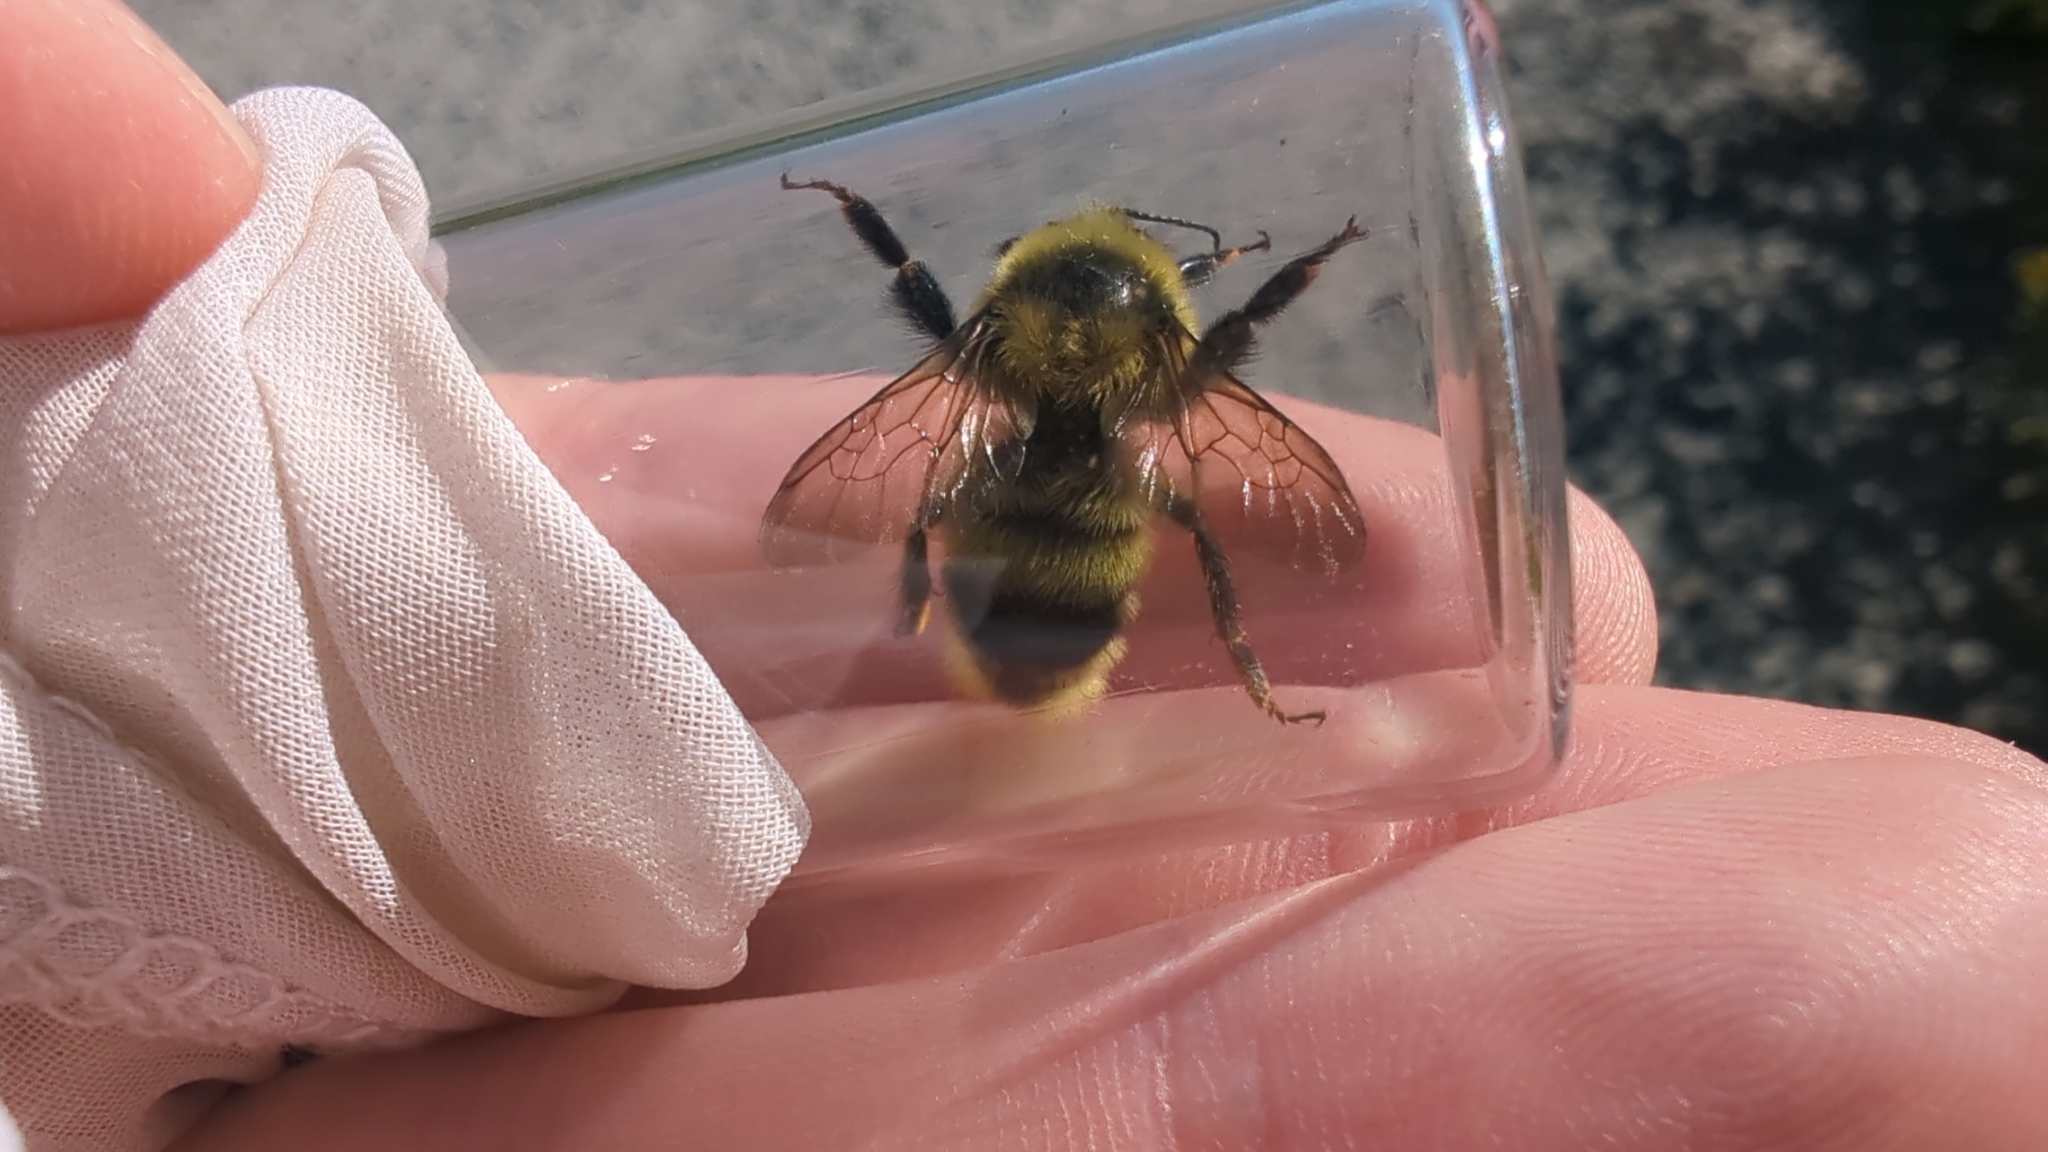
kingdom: Animalia
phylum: Arthropoda
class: Insecta
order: Hymenoptera
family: Apidae
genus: Bombus
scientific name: Bombus rufocinctus
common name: Red-belted bumble bee
